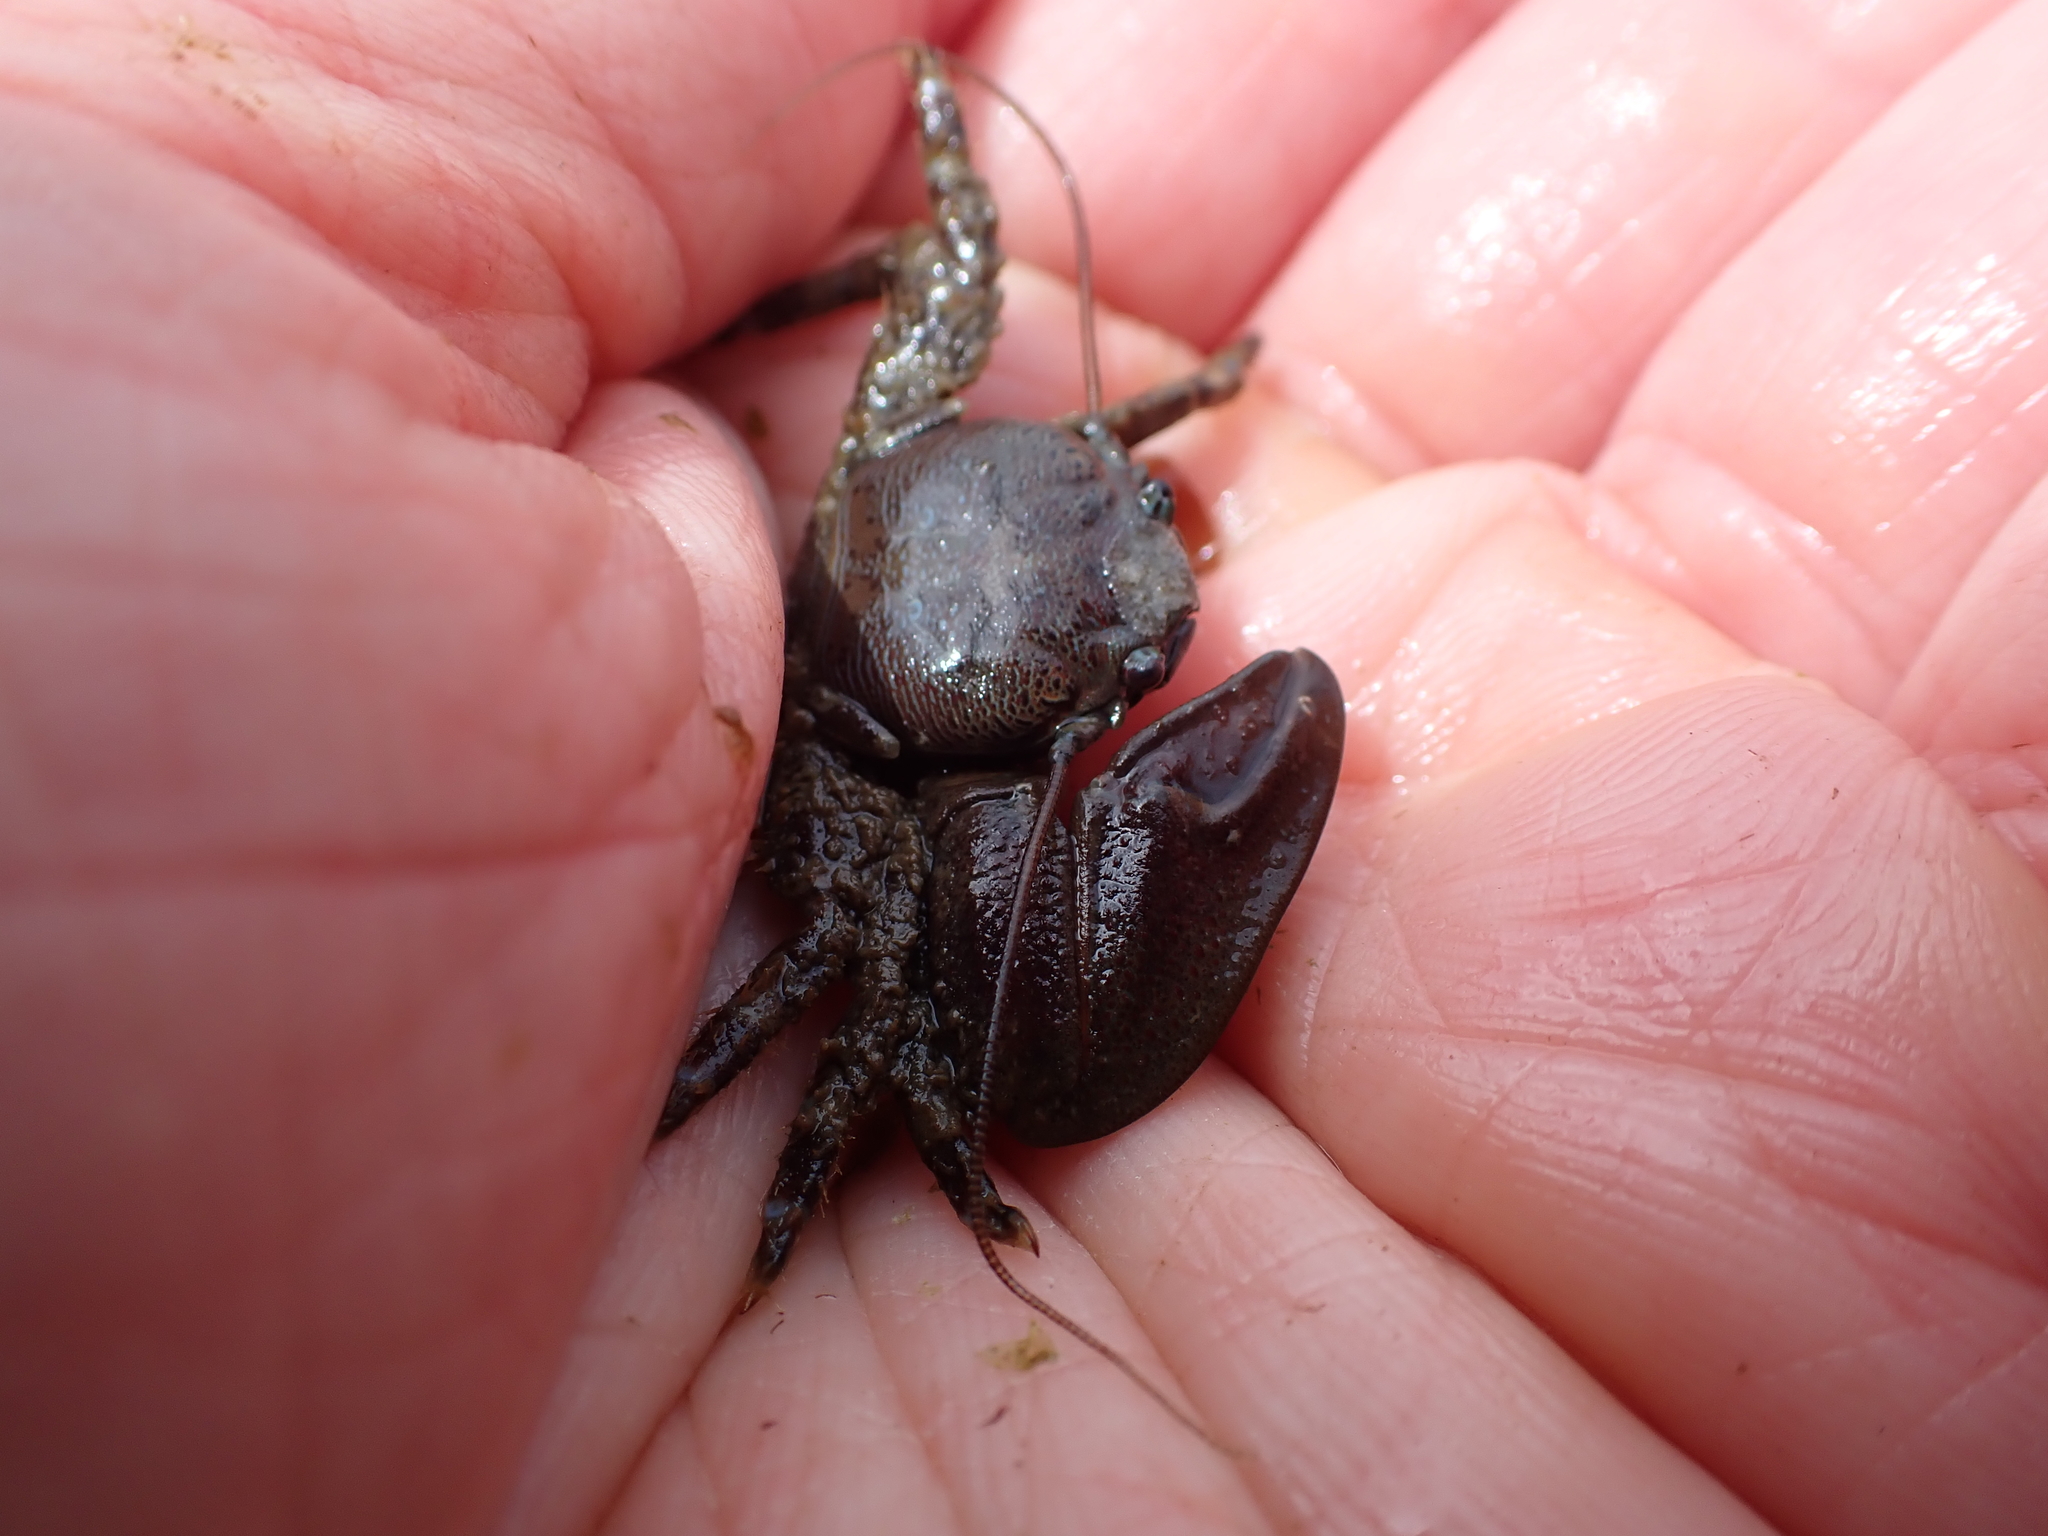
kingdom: Animalia
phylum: Arthropoda
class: Malacostraca
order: Decapoda
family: Porcellanidae
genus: Petrolisthes
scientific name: Petrolisthes eriomerus
